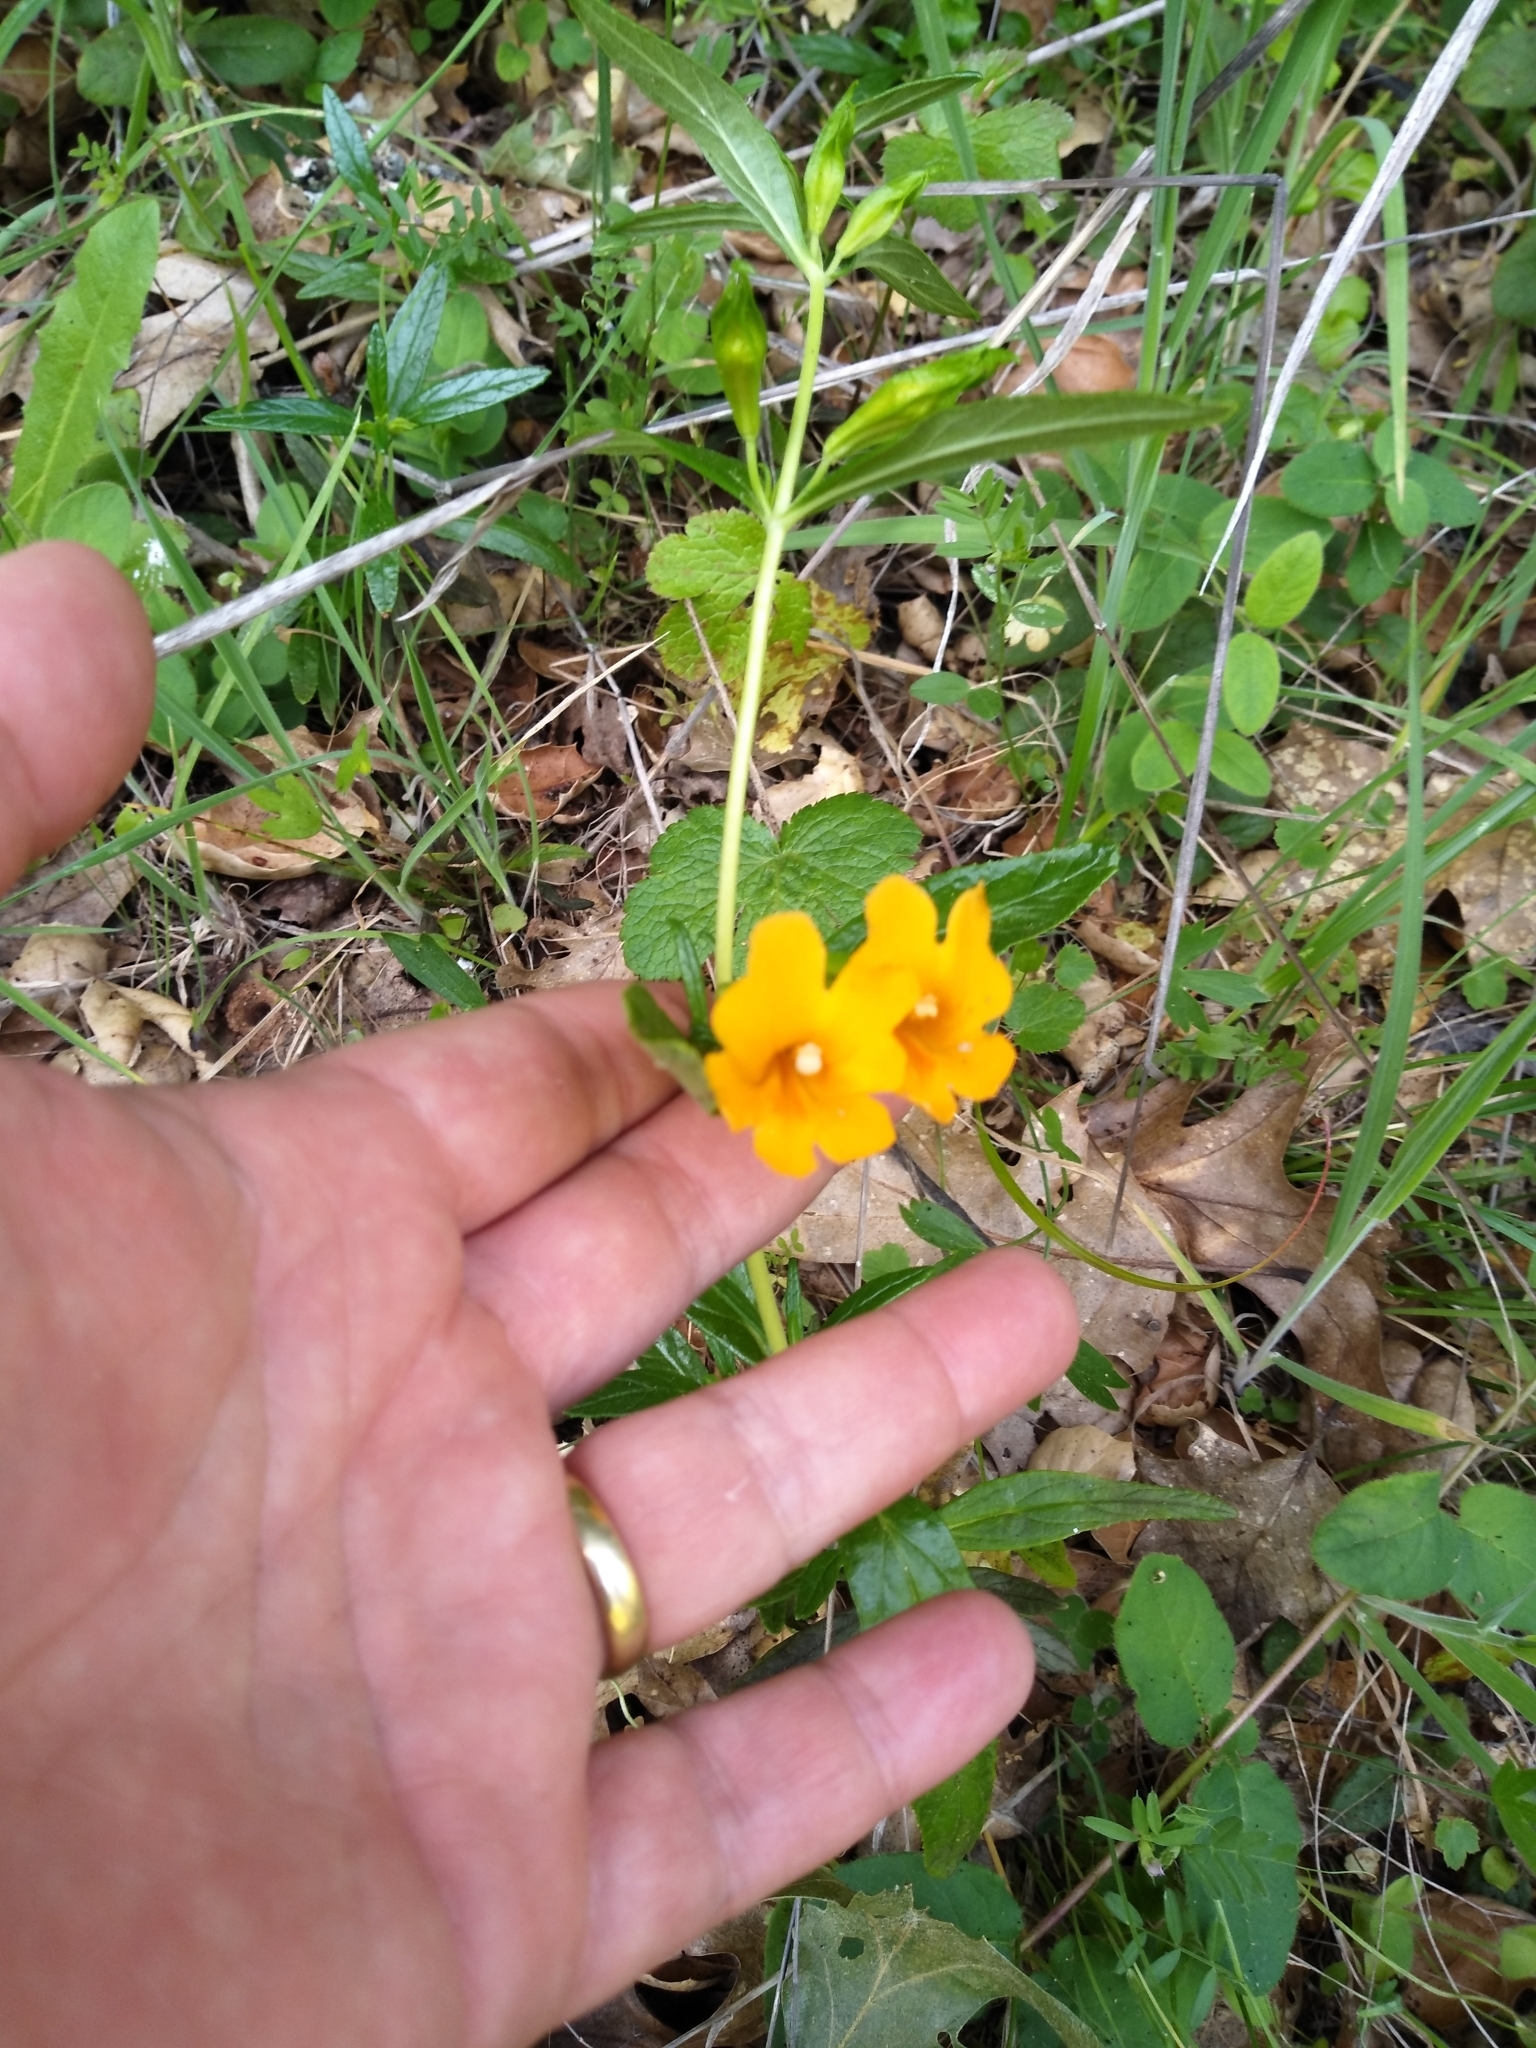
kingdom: Plantae
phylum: Tracheophyta
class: Magnoliopsida
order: Lamiales
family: Phrymaceae
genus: Diplacus
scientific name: Diplacus aurantiacus
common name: Bush monkey-flower
